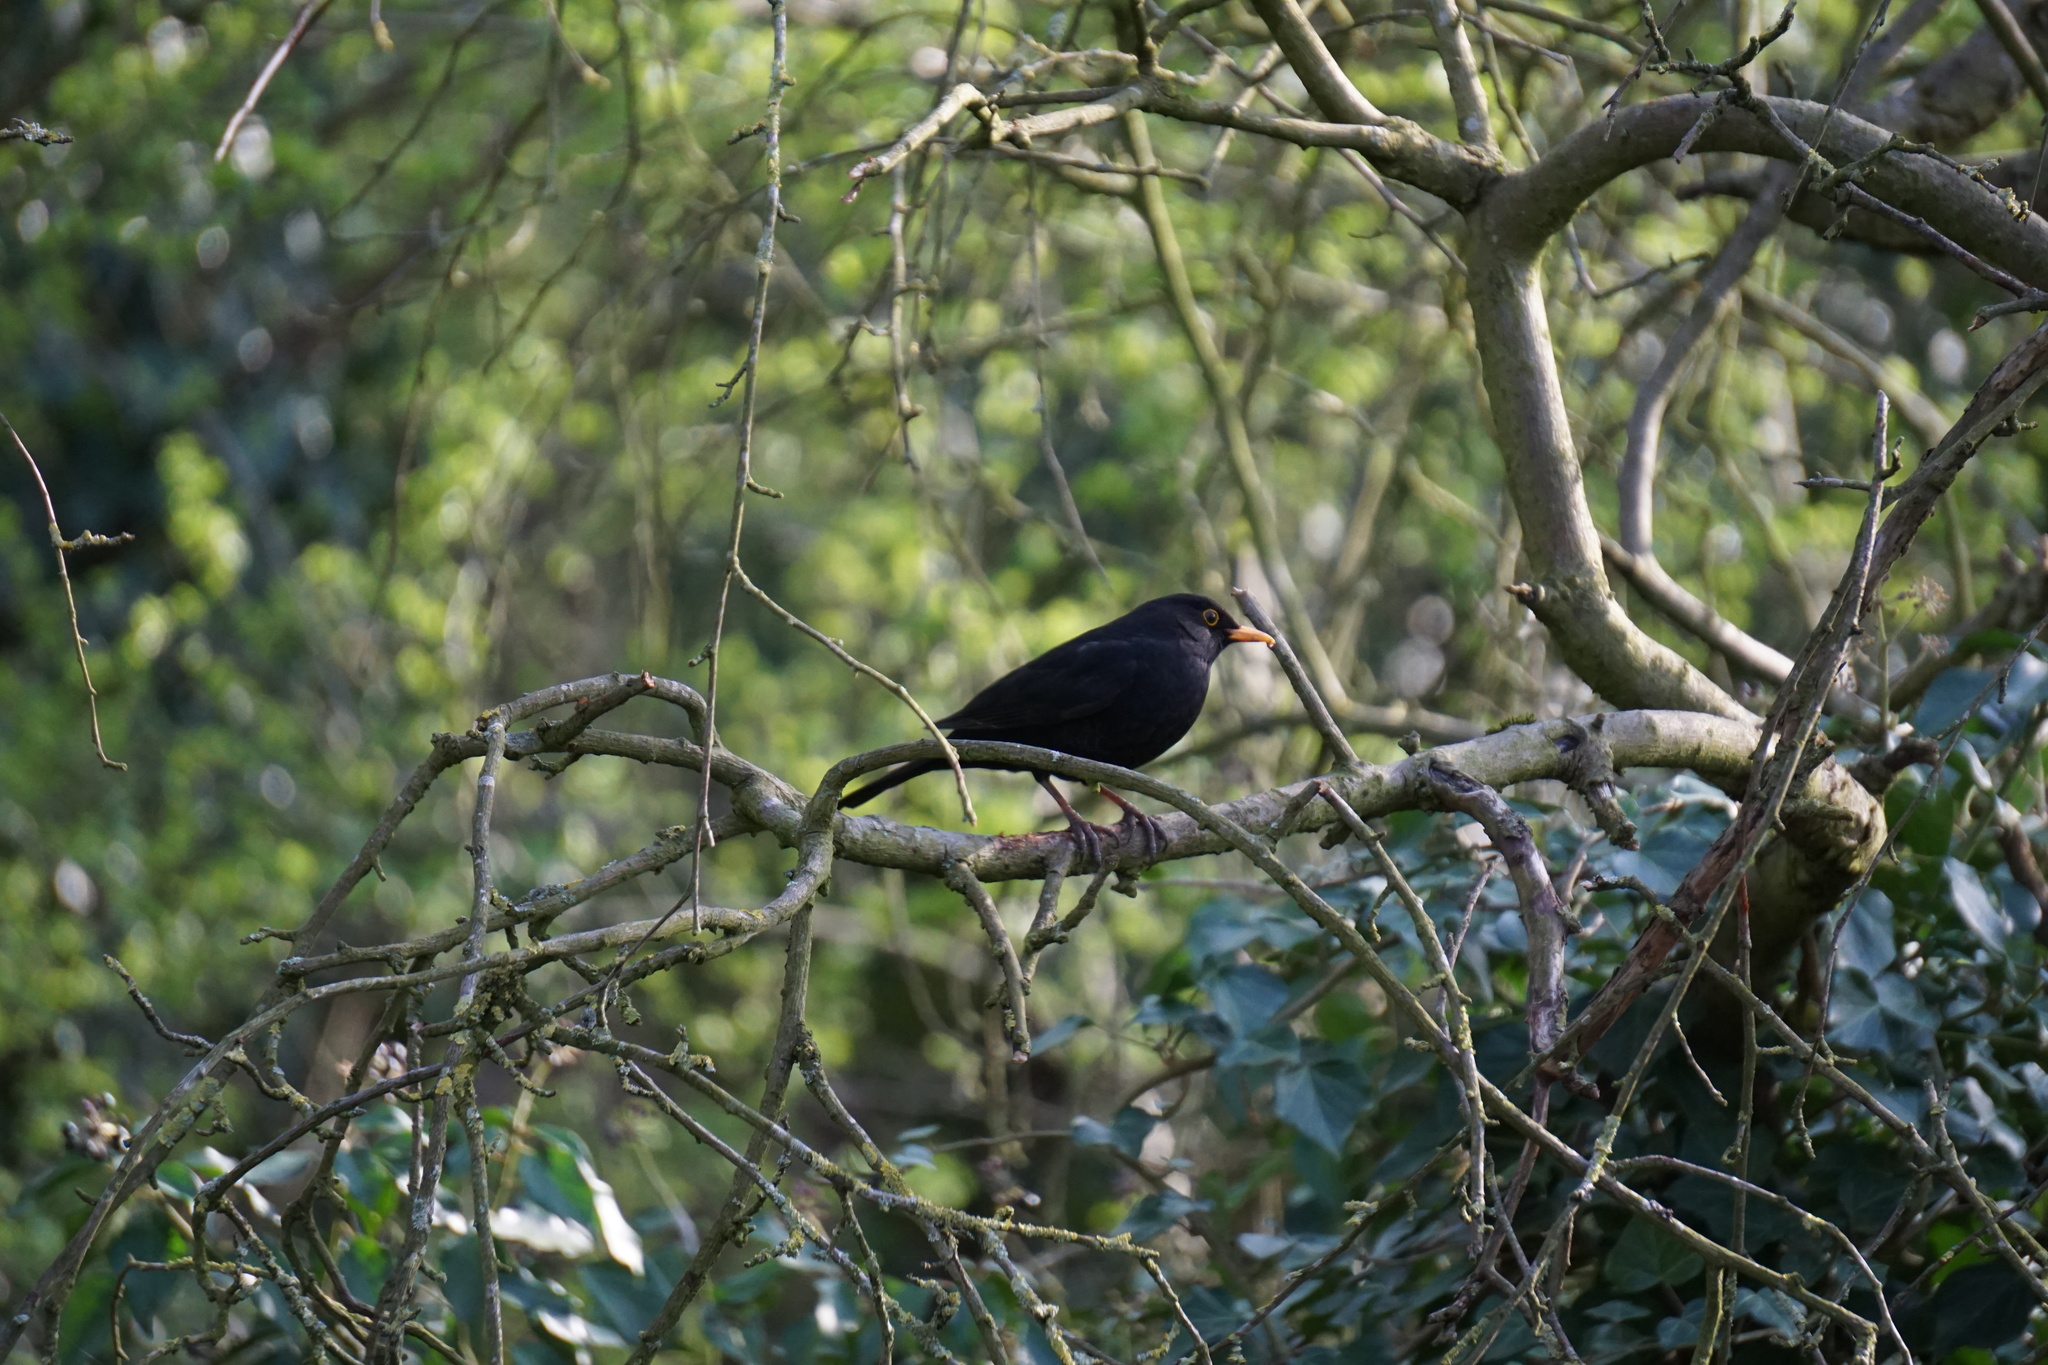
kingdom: Animalia
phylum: Chordata
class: Aves
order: Passeriformes
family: Turdidae
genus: Turdus
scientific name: Turdus merula
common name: Common blackbird
